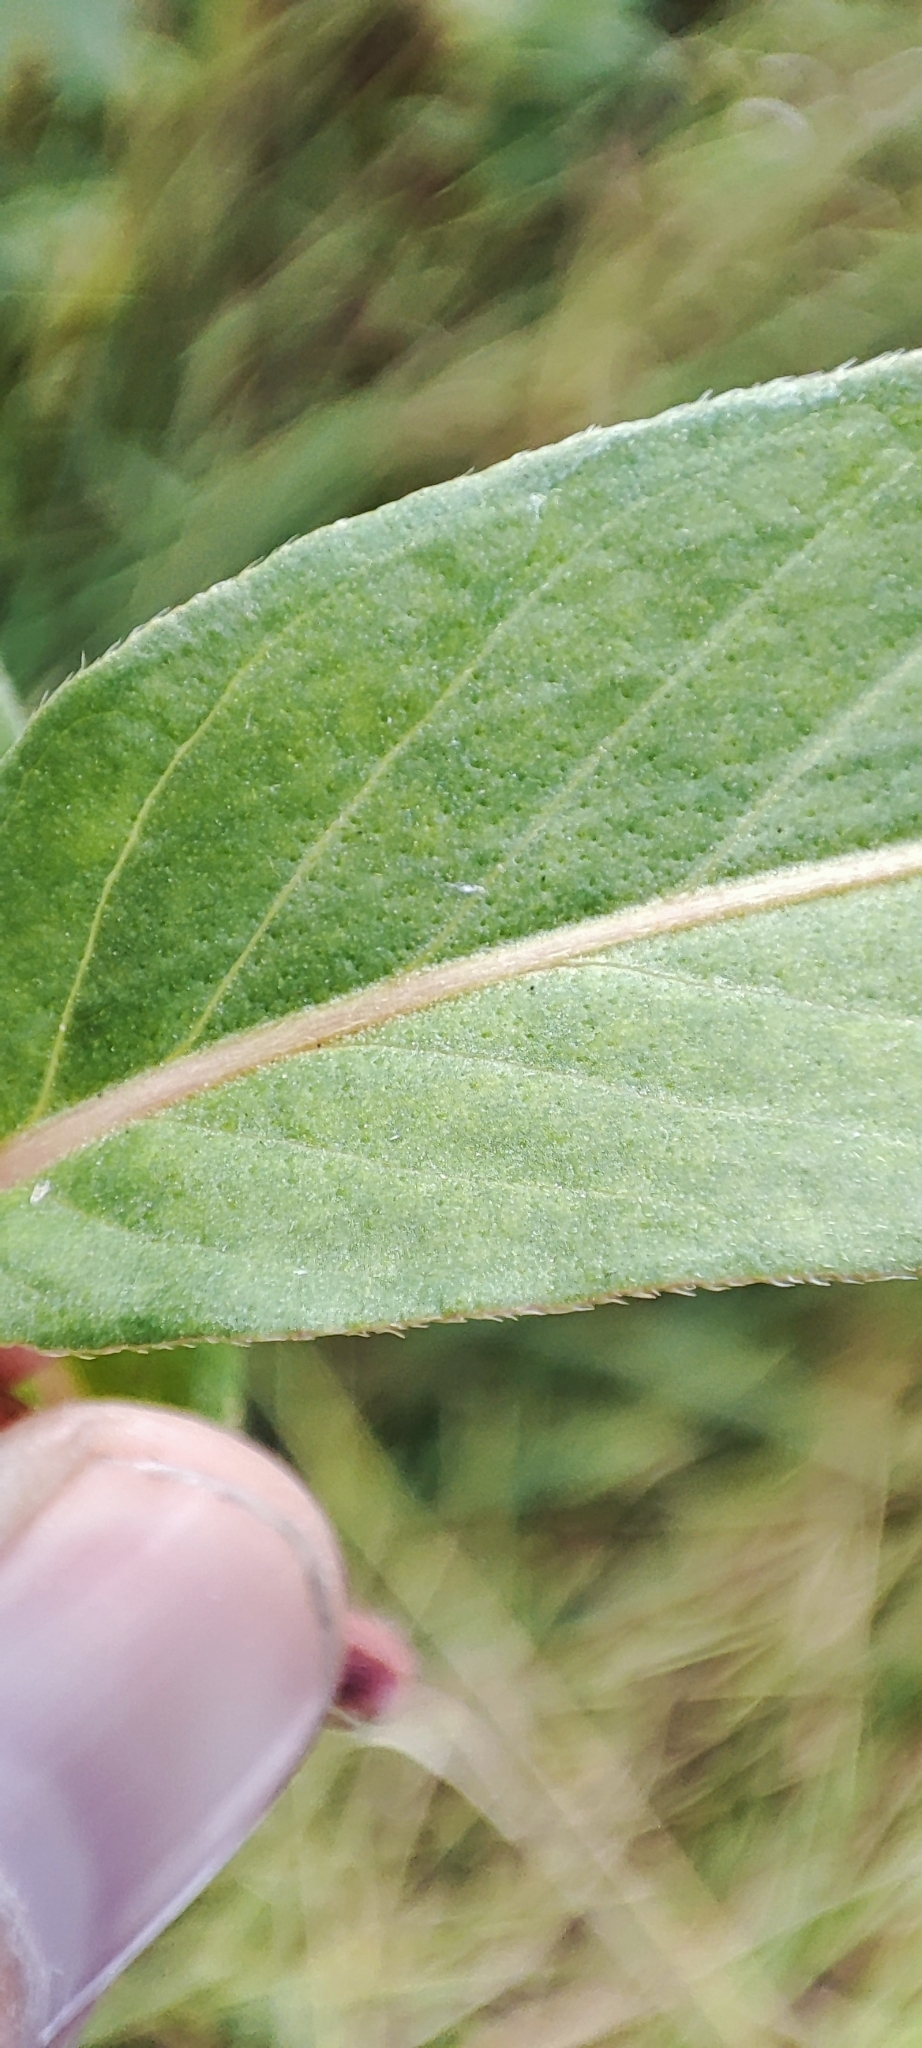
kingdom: Plantae
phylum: Tracheophyta
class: Magnoliopsida
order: Caryophyllales
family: Polygonaceae
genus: Persicaria
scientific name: Persicaria amphibia
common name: Amphibious bistort
